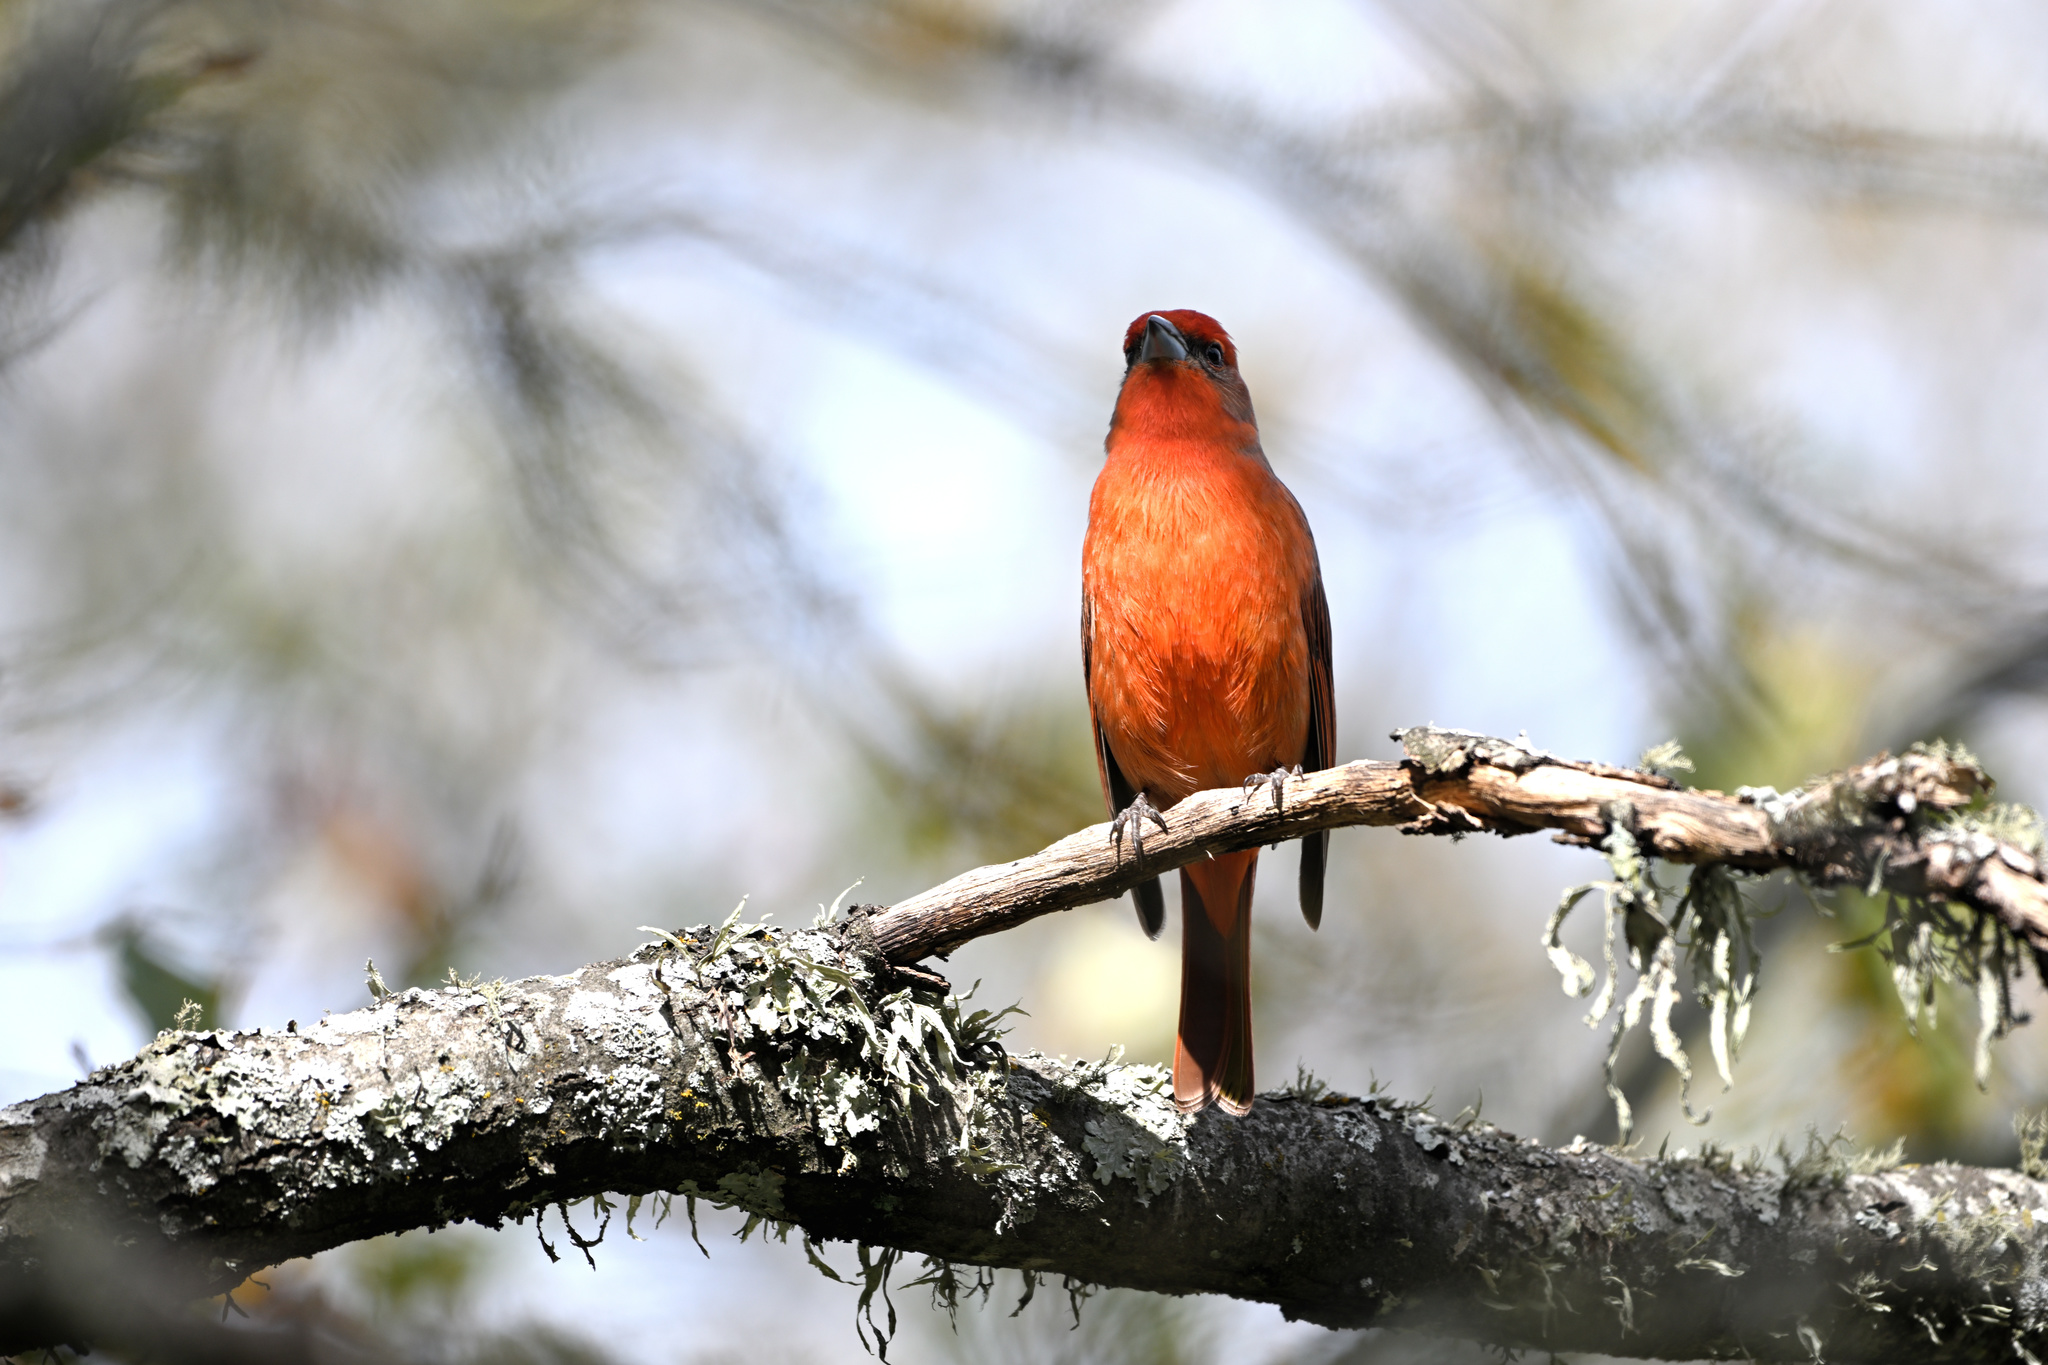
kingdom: Animalia
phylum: Chordata
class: Aves
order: Passeriformes
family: Cardinalidae
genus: Piranga
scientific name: Piranga flava
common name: Red tanager
